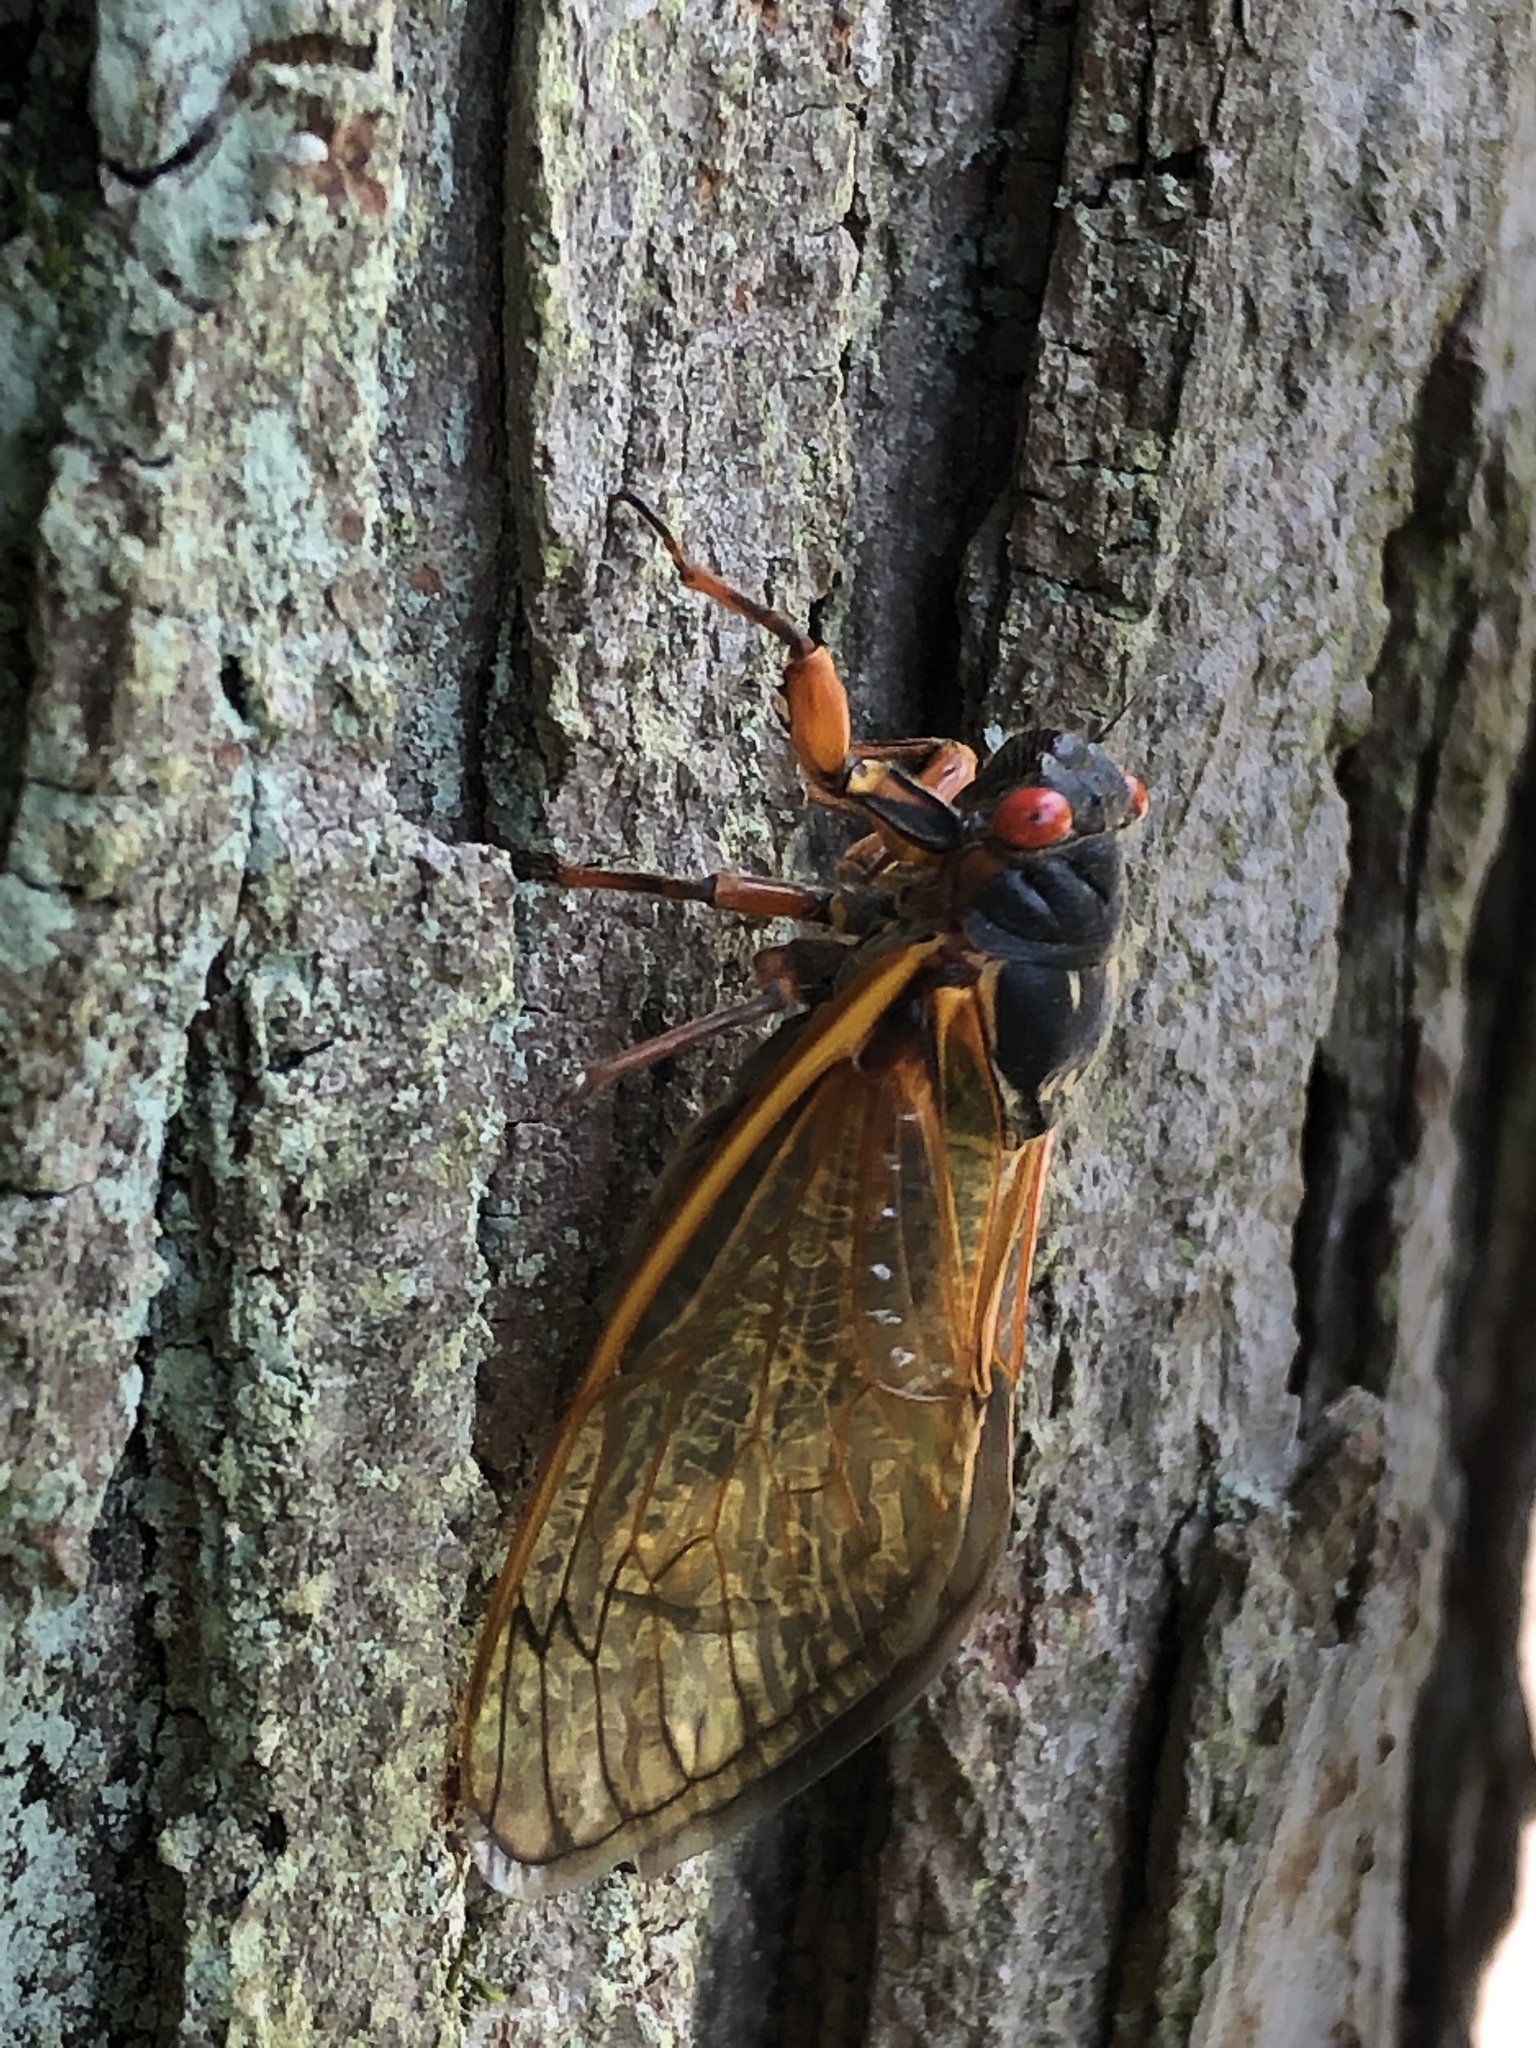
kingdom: Animalia
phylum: Arthropoda
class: Insecta
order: Hemiptera
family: Cicadidae
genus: Magicicada
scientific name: Magicicada septendecim
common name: Periodical cicada
